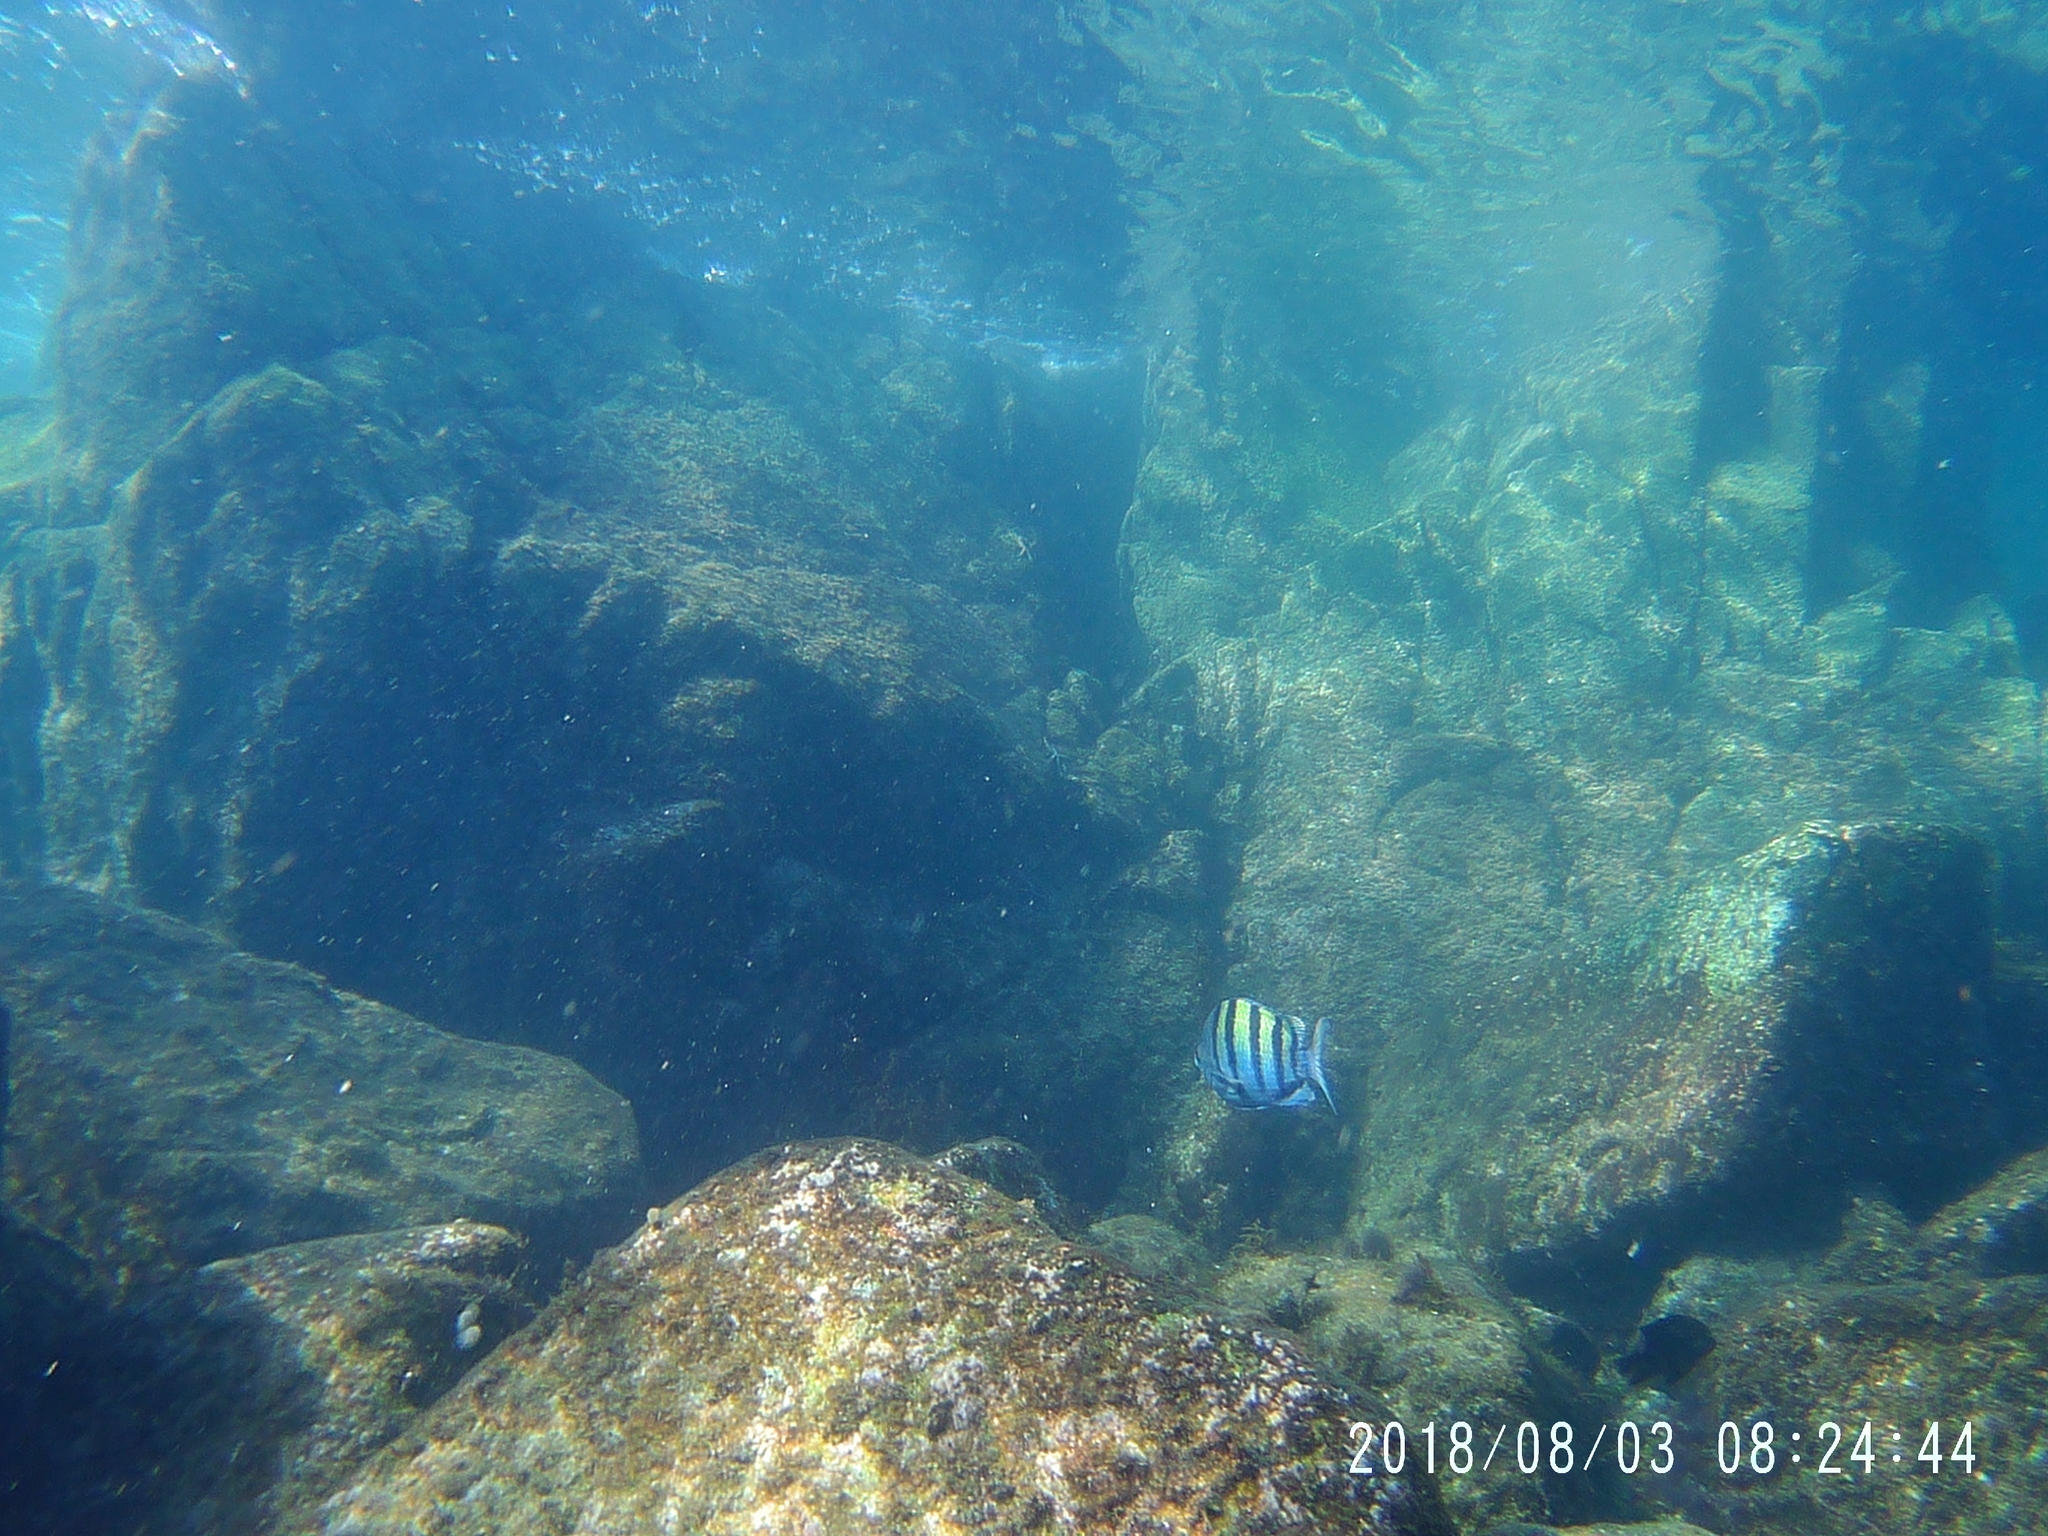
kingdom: Animalia
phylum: Chordata
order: Perciformes
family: Pomacentridae
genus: Abudefduf
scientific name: Abudefduf troschelii
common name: Panamic sergeant major
